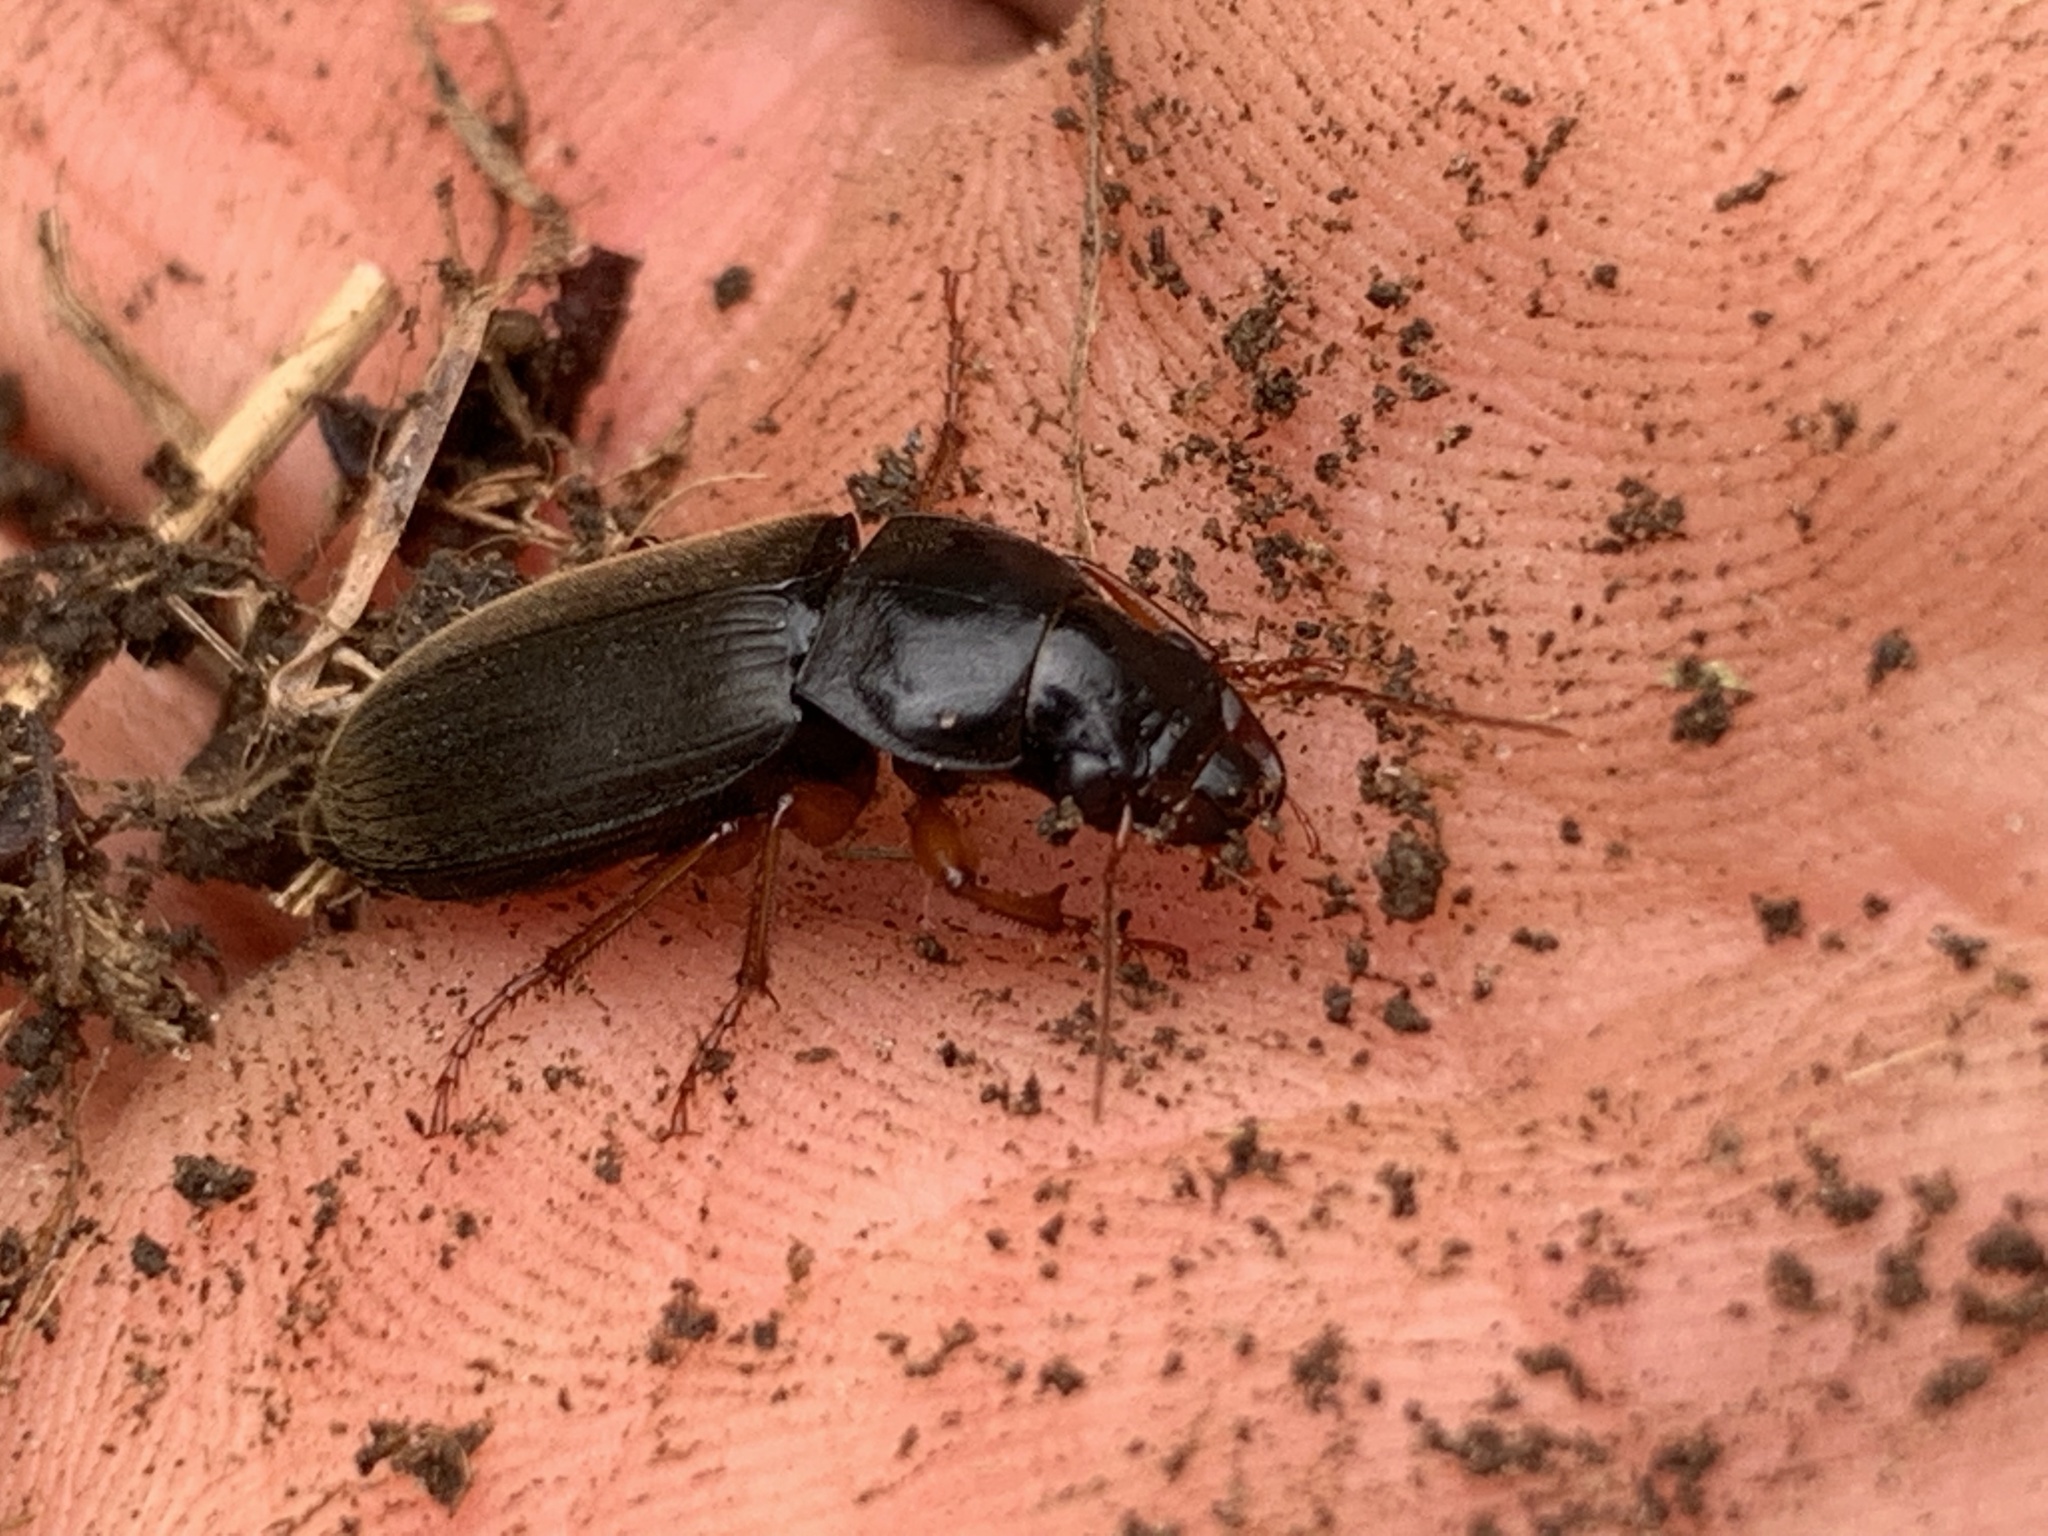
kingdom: Animalia
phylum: Arthropoda
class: Insecta
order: Coleoptera
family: Carabidae
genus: Harpalus
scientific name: Harpalus rufipes
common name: Strawberry harp ground beetle
